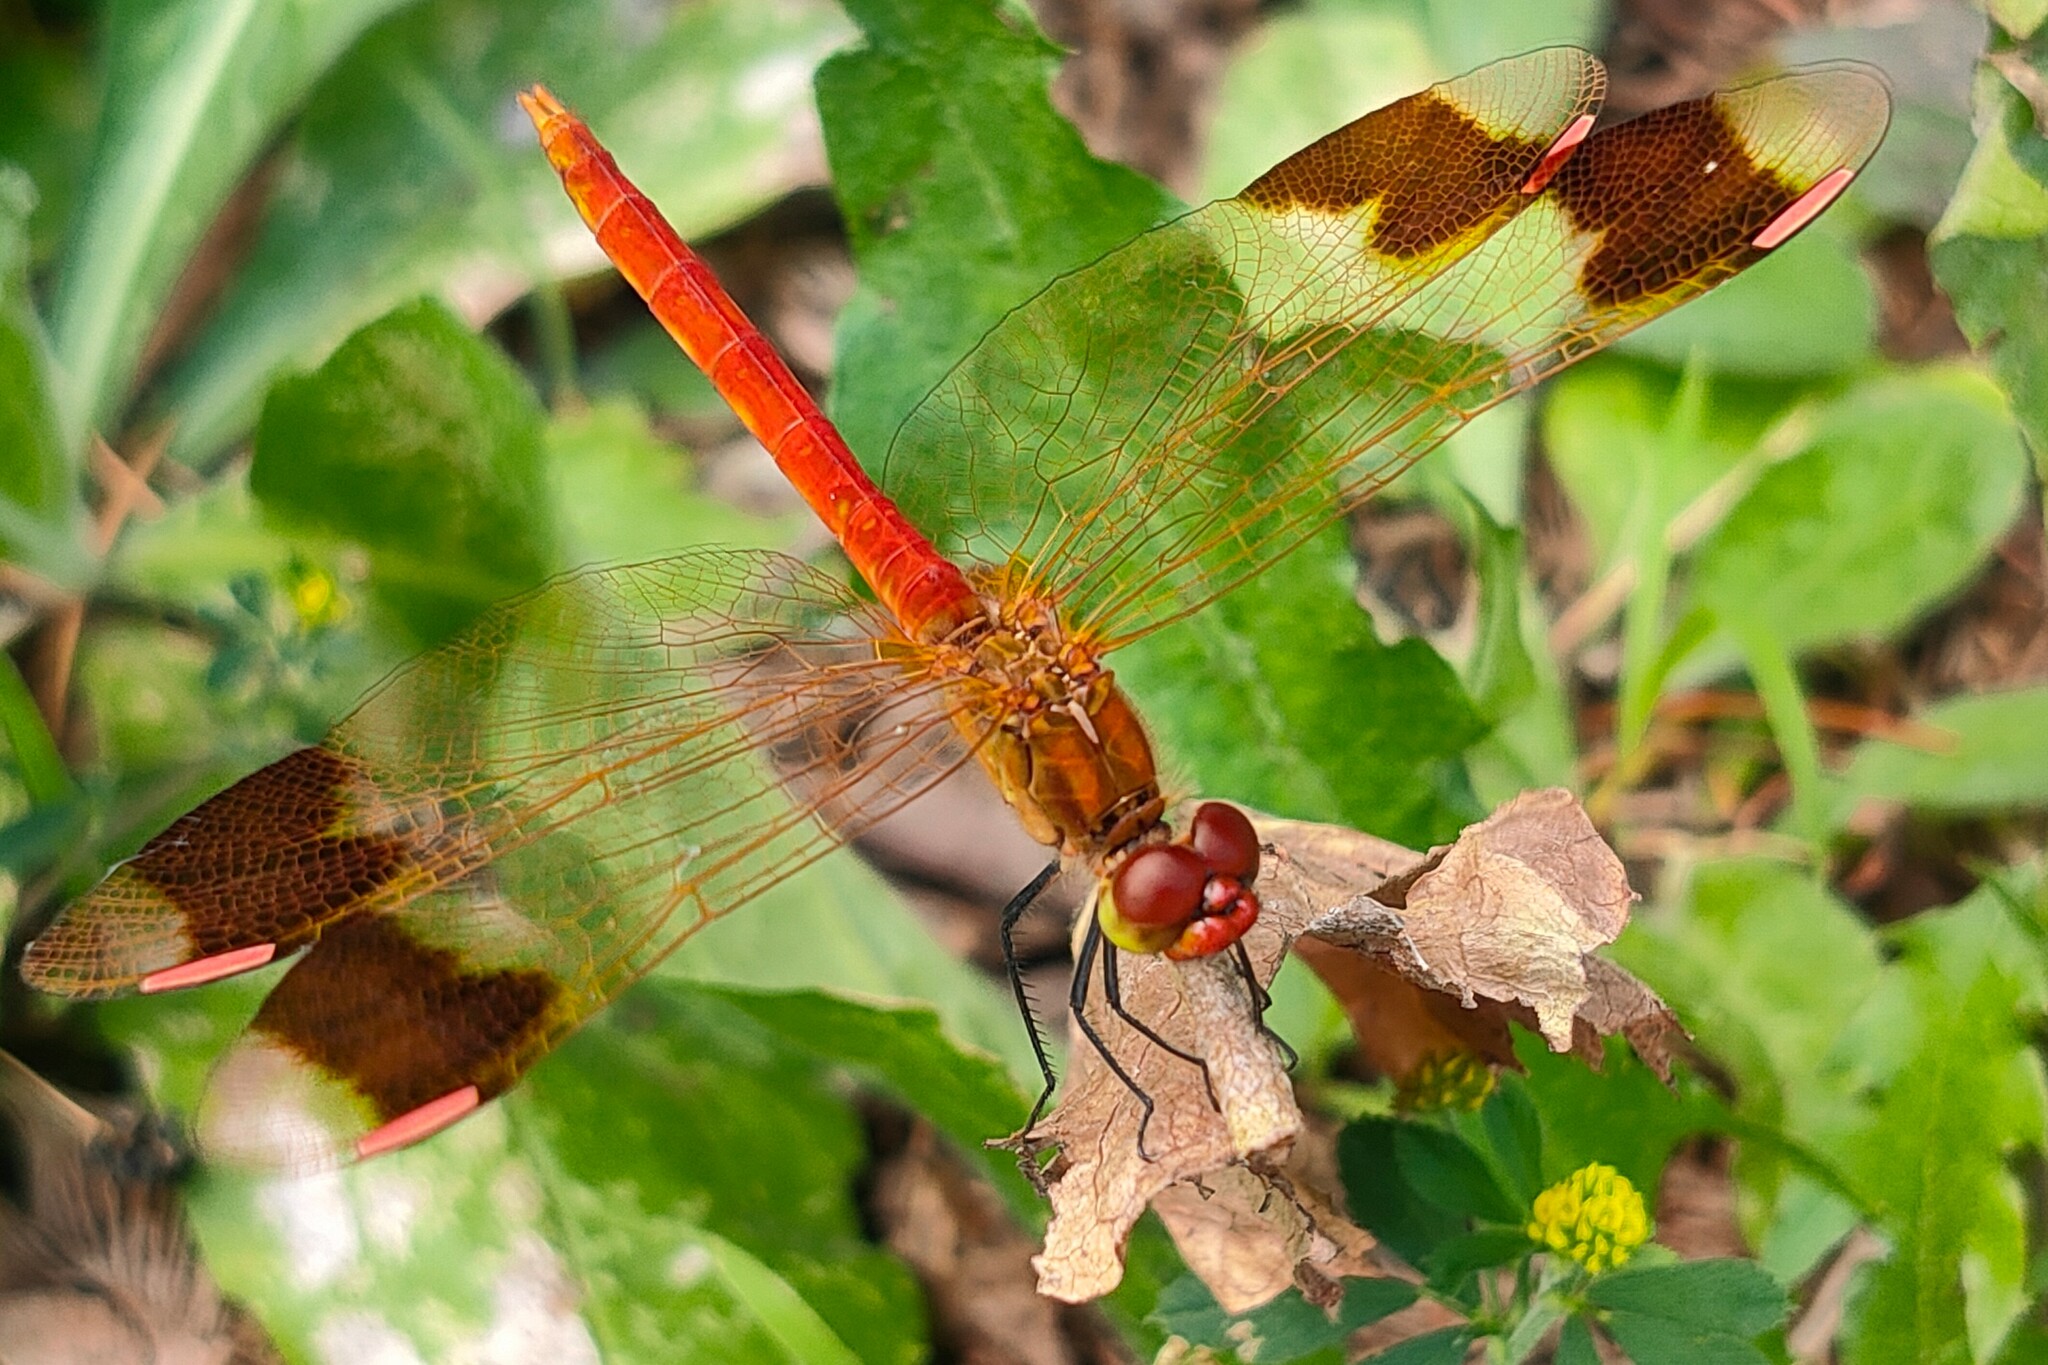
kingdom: Animalia
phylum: Arthropoda
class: Insecta
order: Odonata
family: Libellulidae
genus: Sympetrum
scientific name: Sympetrum pedemontanum
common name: Banded darter
